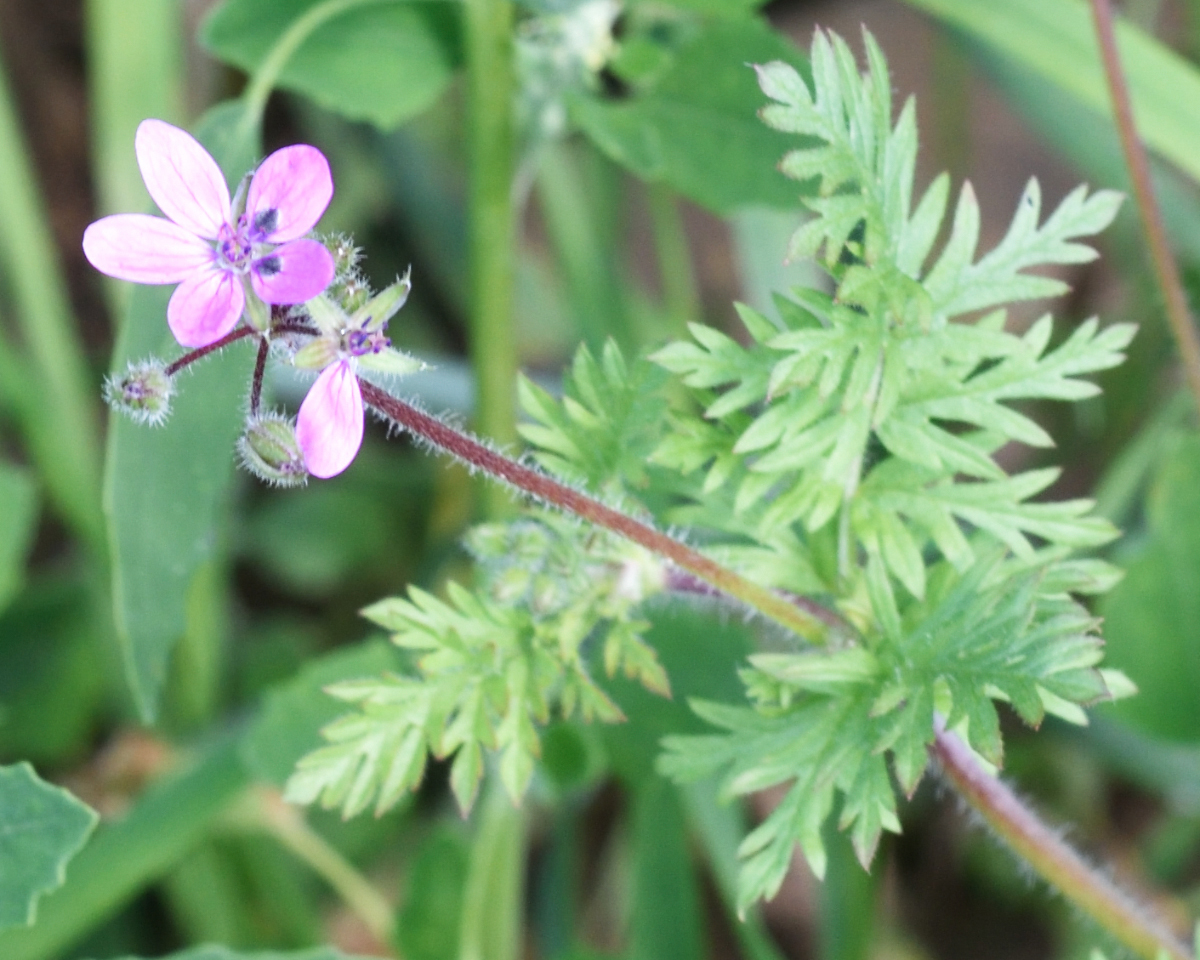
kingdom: Plantae
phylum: Tracheophyta
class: Magnoliopsida
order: Geraniales
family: Geraniaceae
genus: Erodium
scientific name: Erodium cicutarium
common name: Common stork's-bill
